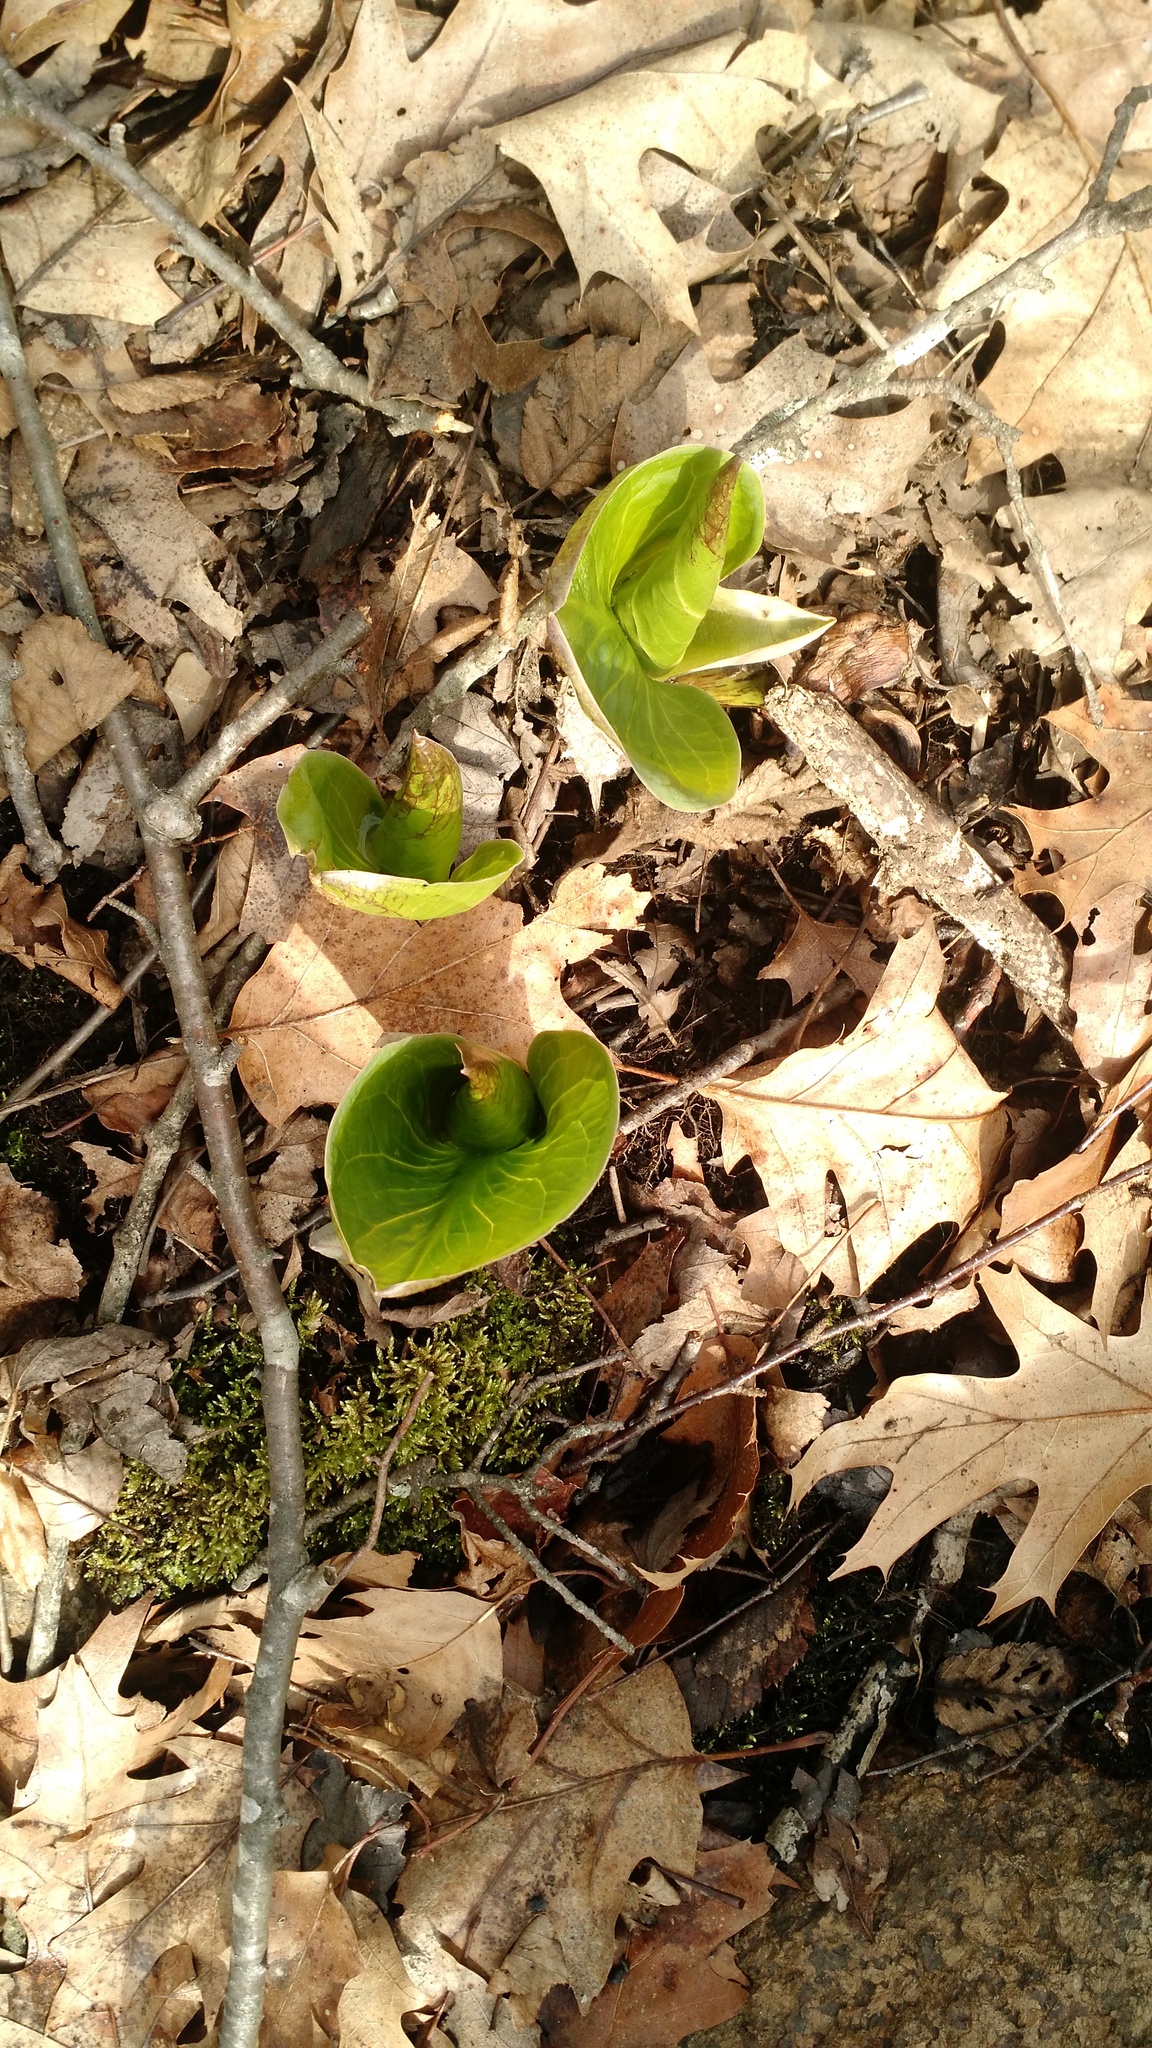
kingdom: Plantae
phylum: Tracheophyta
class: Liliopsida
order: Alismatales
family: Araceae
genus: Symplocarpus
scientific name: Symplocarpus foetidus
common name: Eastern skunk cabbage
